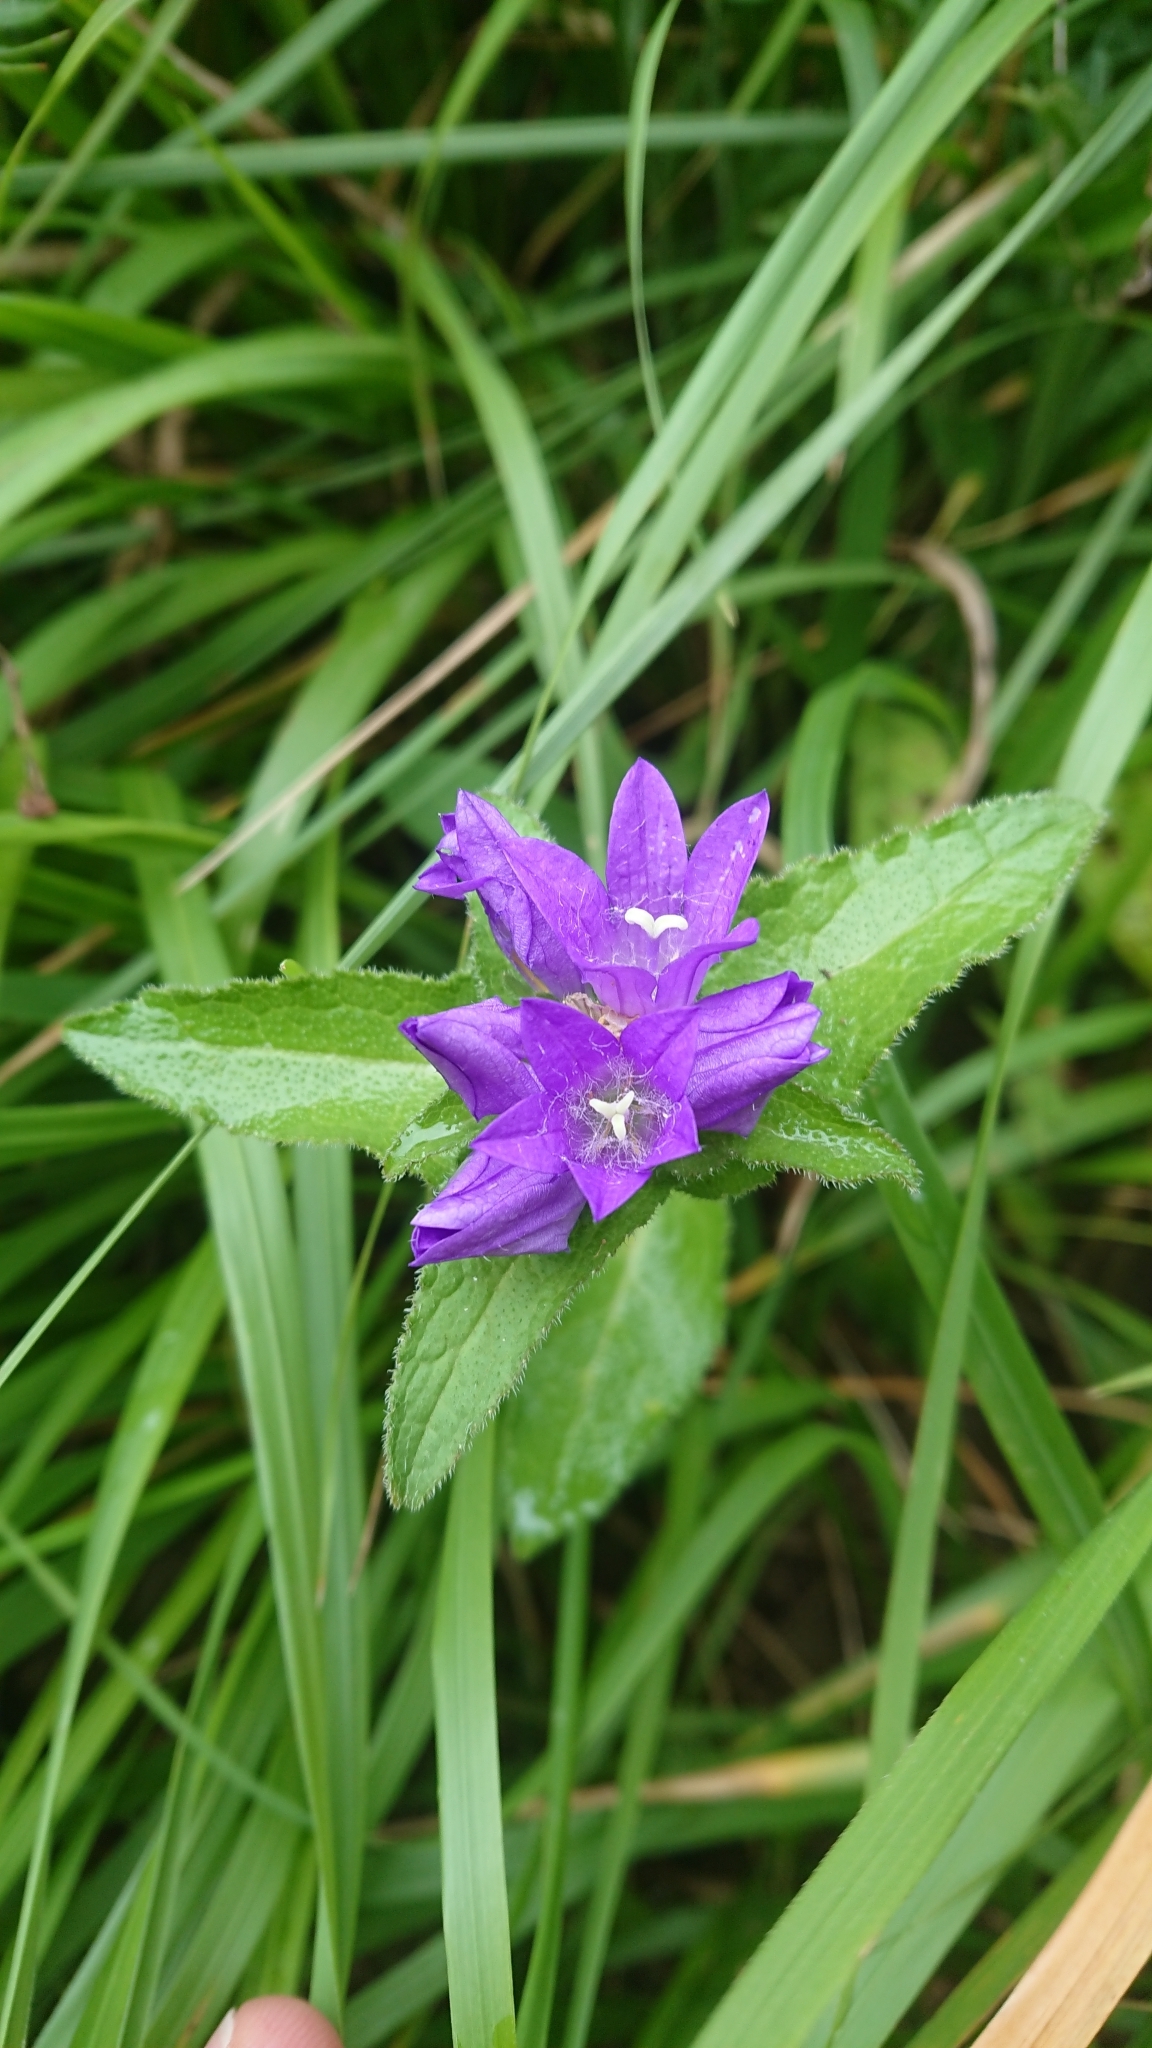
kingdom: Plantae
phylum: Tracheophyta
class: Magnoliopsida
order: Asterales
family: Campanulaceae
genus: Campanula
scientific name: Campanula glomerata
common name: Clustered bellflower
